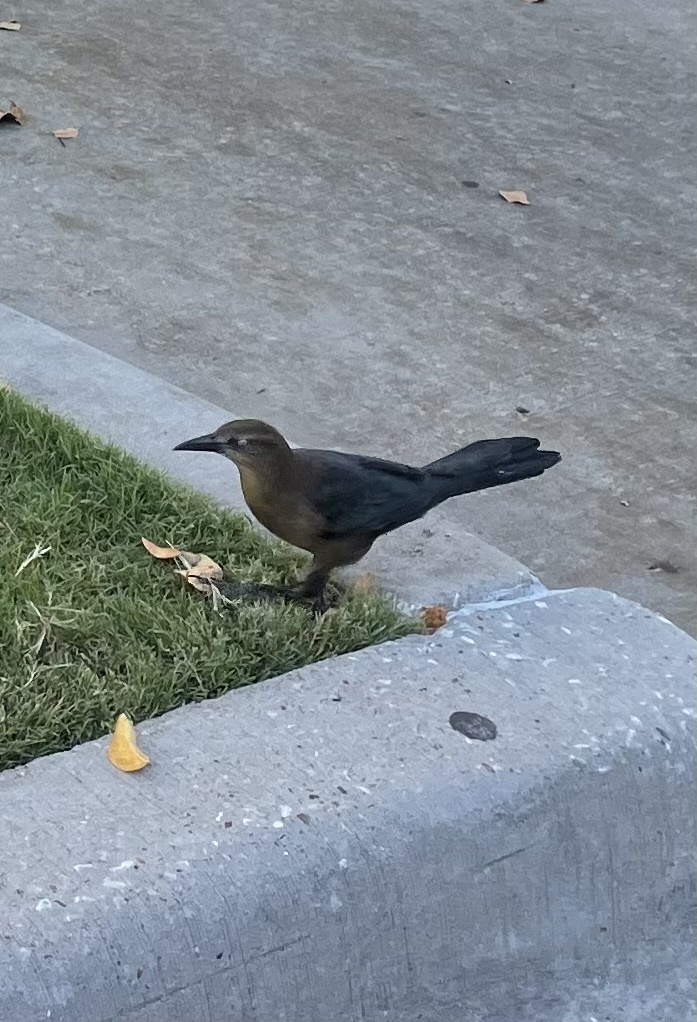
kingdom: Animalia
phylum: Chordata
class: Aves
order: Passeriformes
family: Icteridae
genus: Quiscalus
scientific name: Quiscalus mexicanus
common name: Great-tailed grackle
